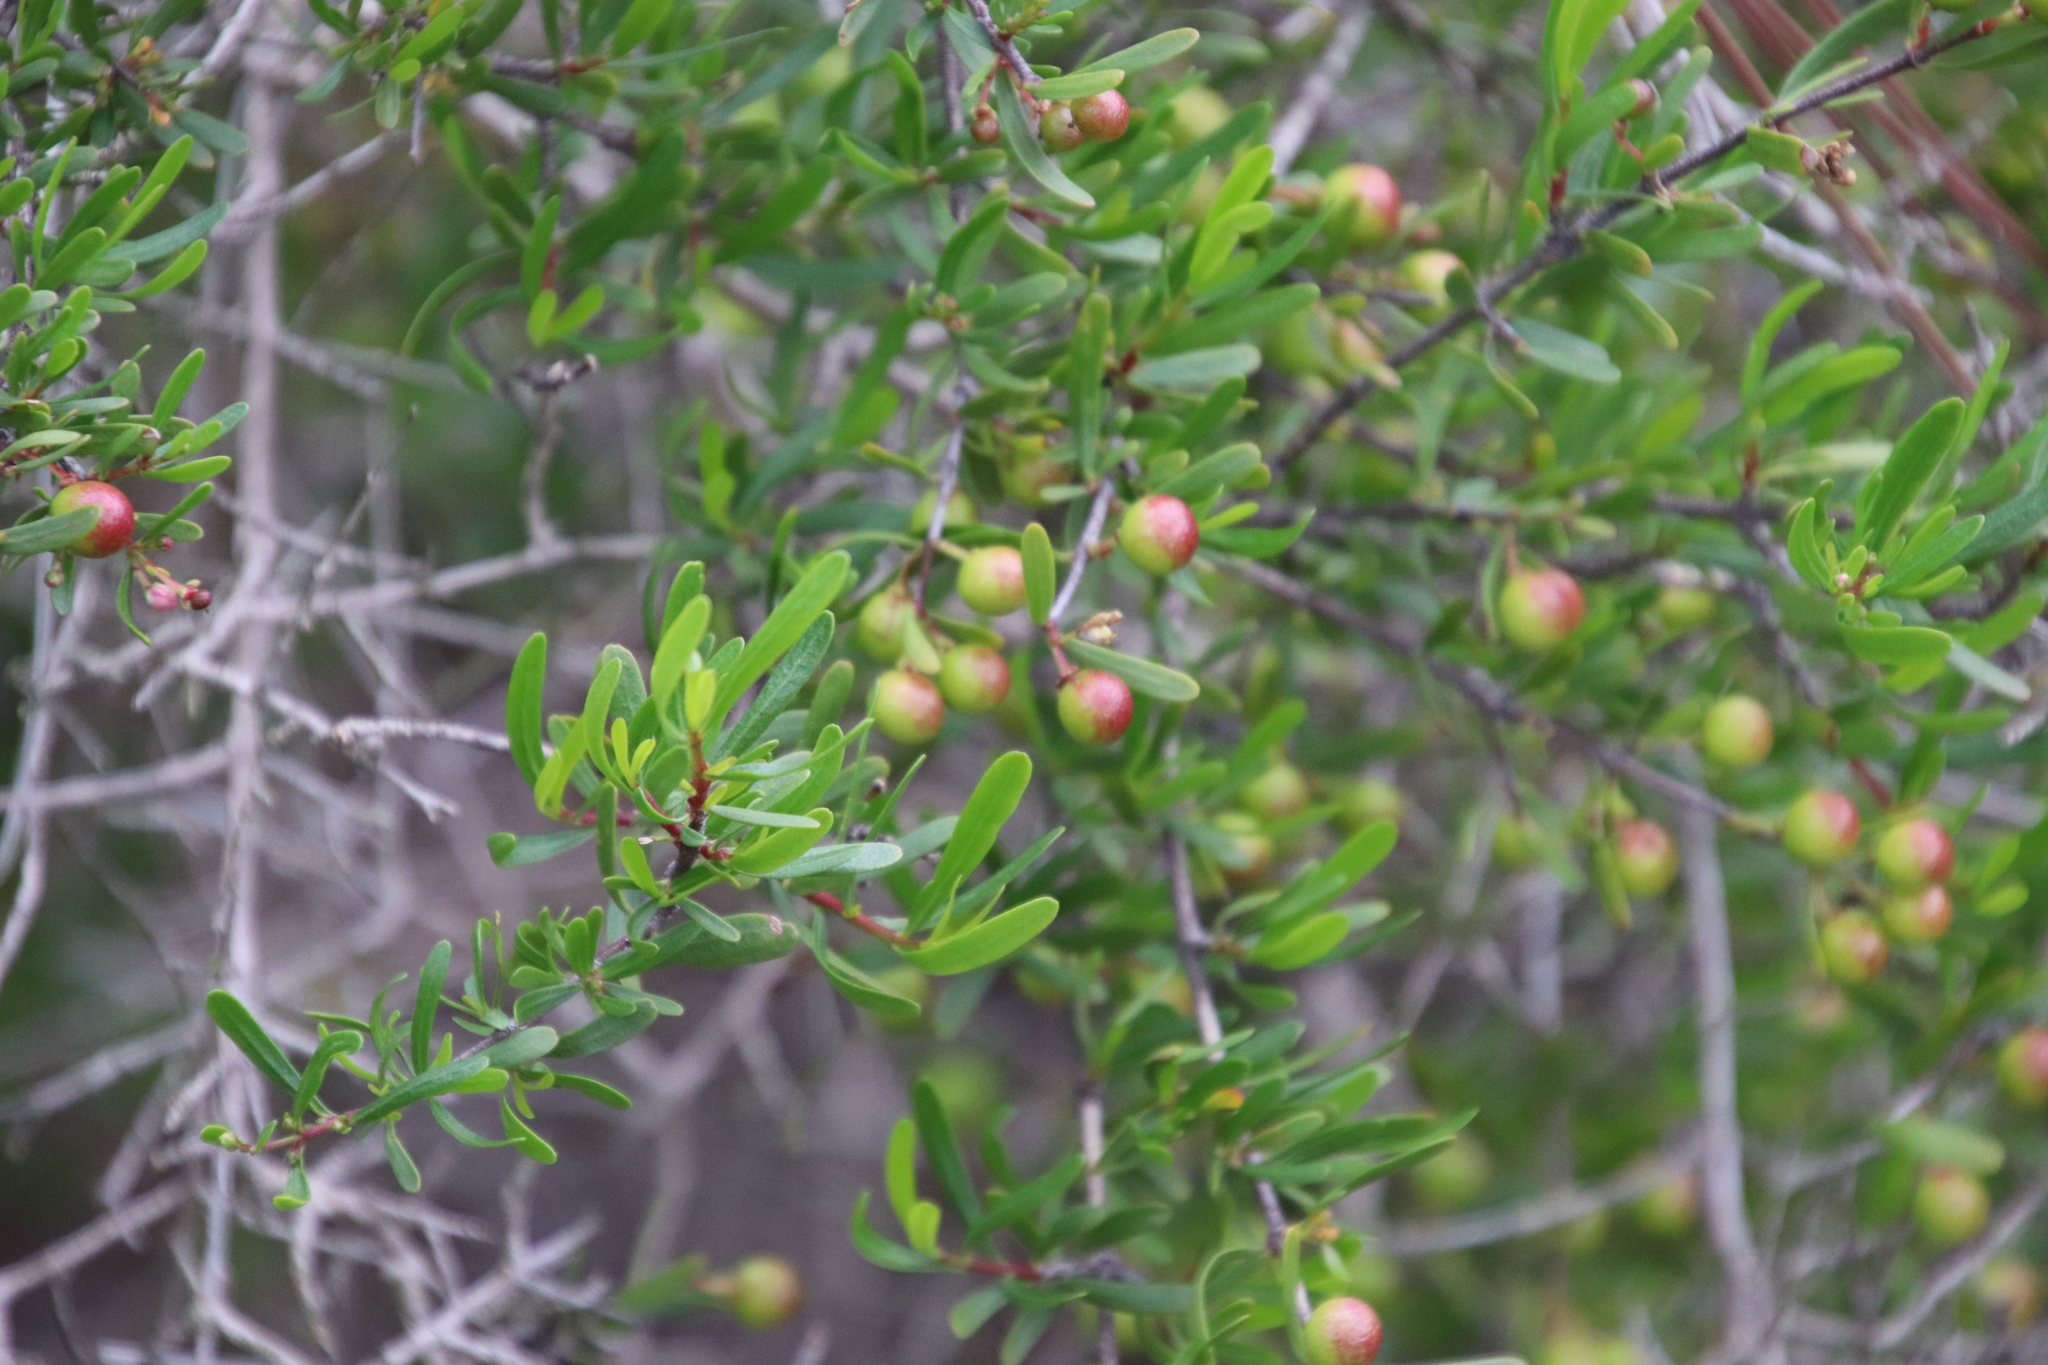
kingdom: Plantae
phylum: Tracheophyta
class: Magnoliopsida
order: Sapindales
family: Rutaceae
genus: Cneoridium
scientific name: Cneoridium dumosum
